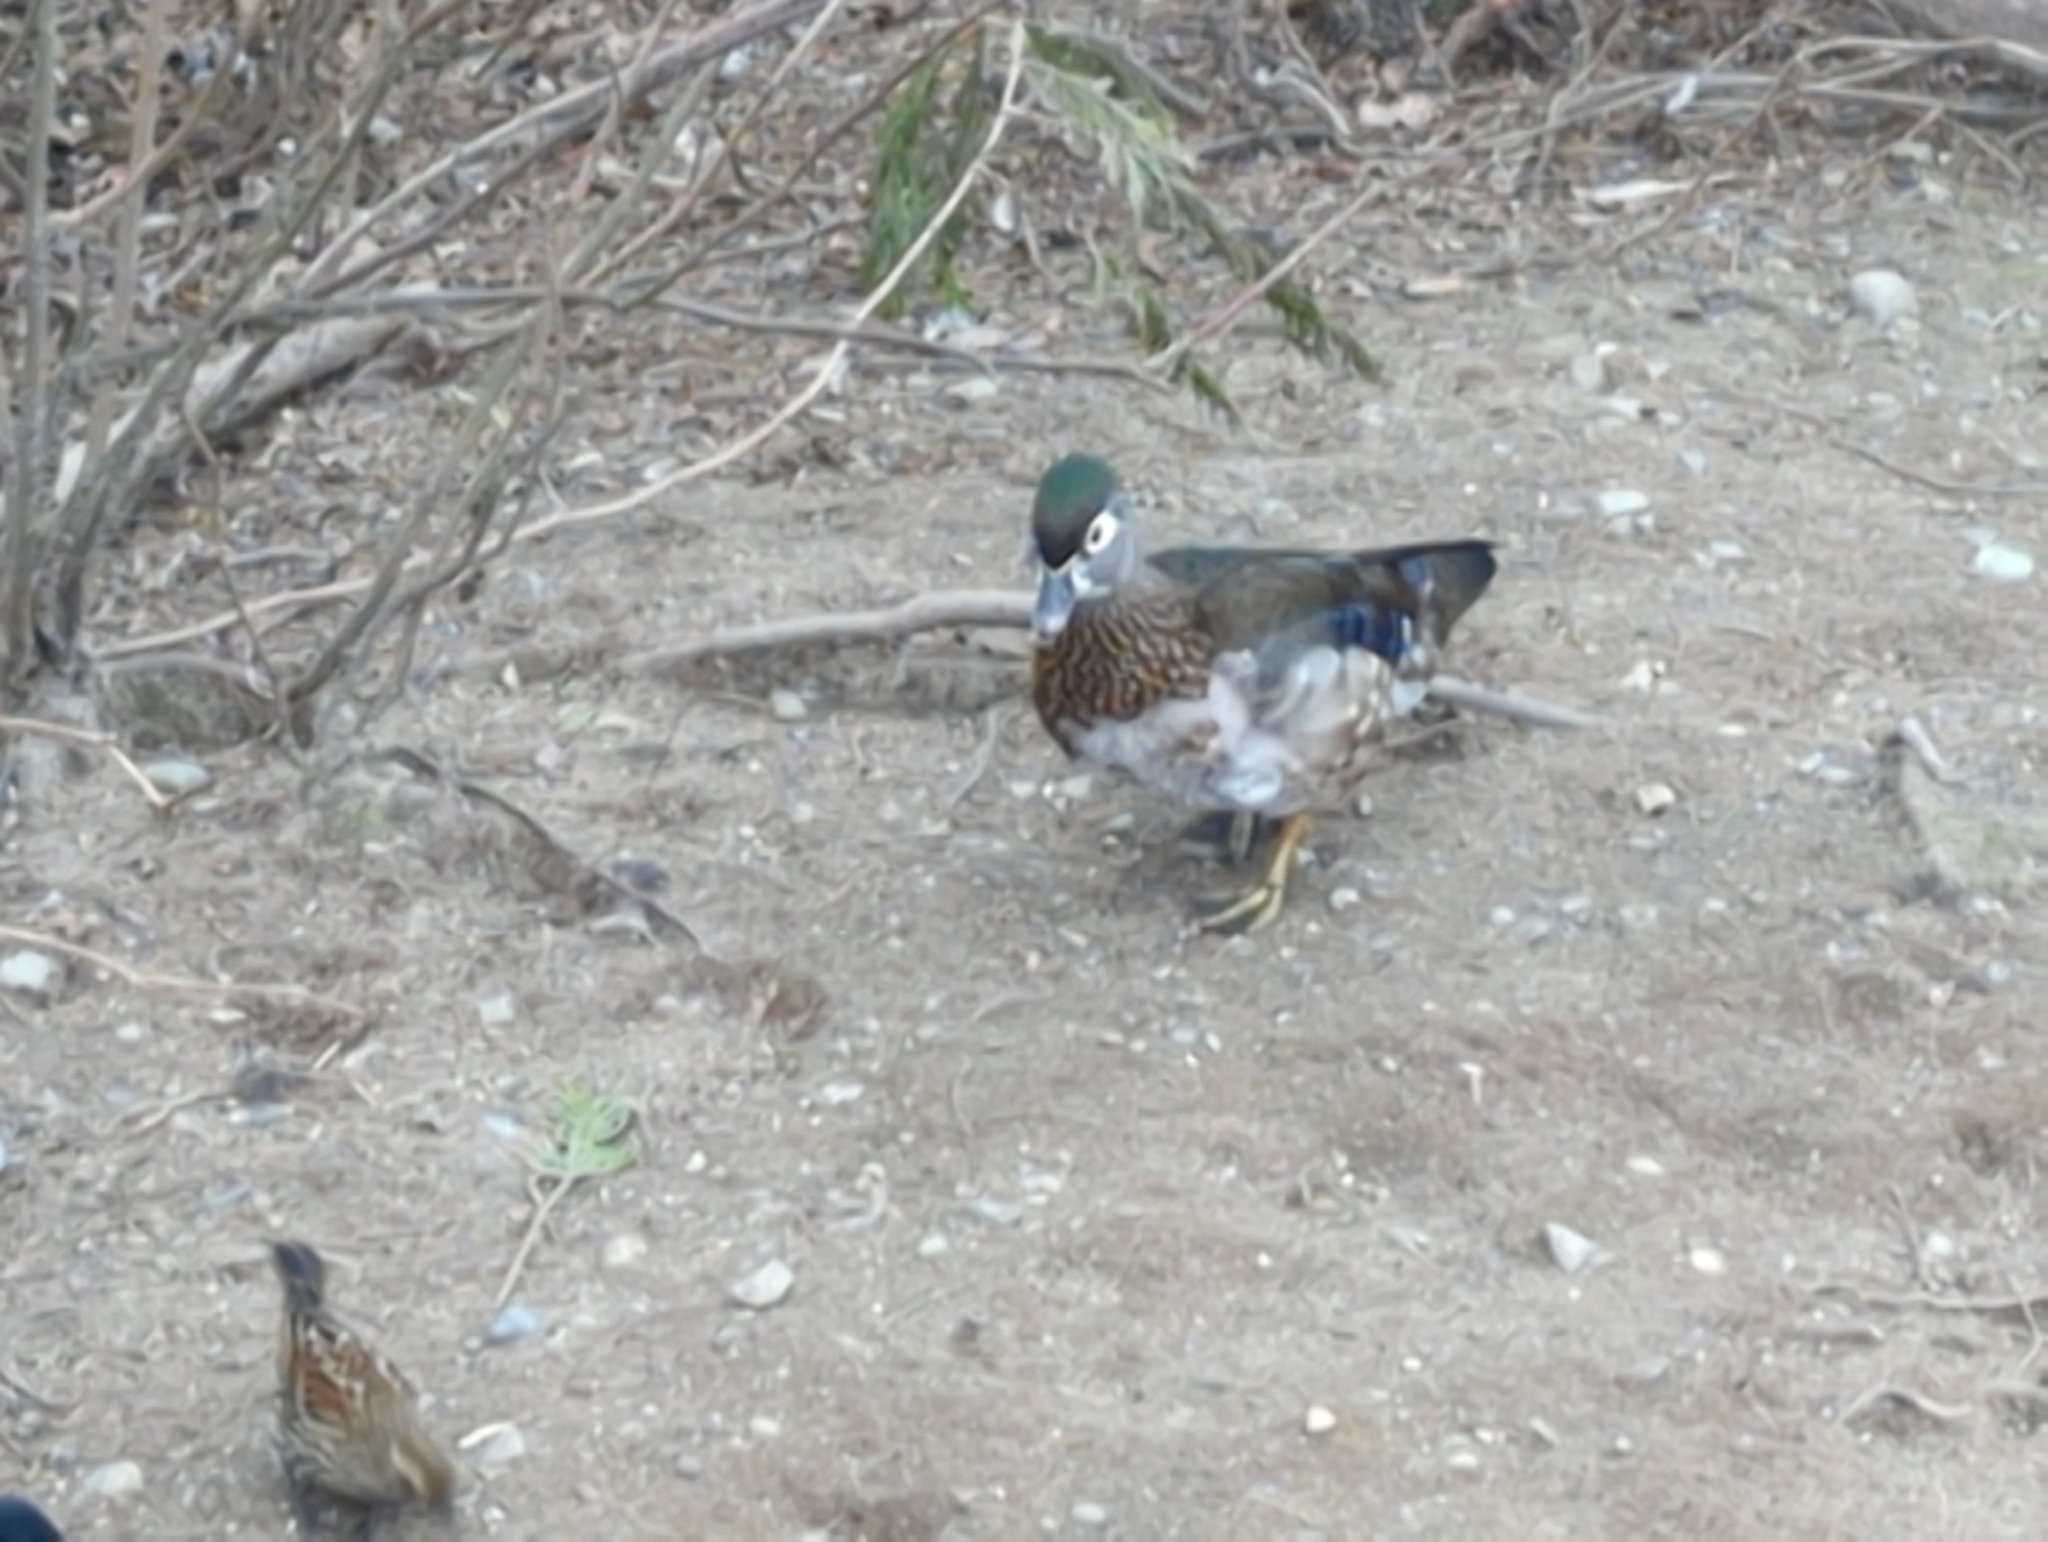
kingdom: Animalia
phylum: Chordata
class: Aves
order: Anseriformes
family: Anatidae
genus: Aix
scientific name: Aix sponsa
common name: Wood duck
